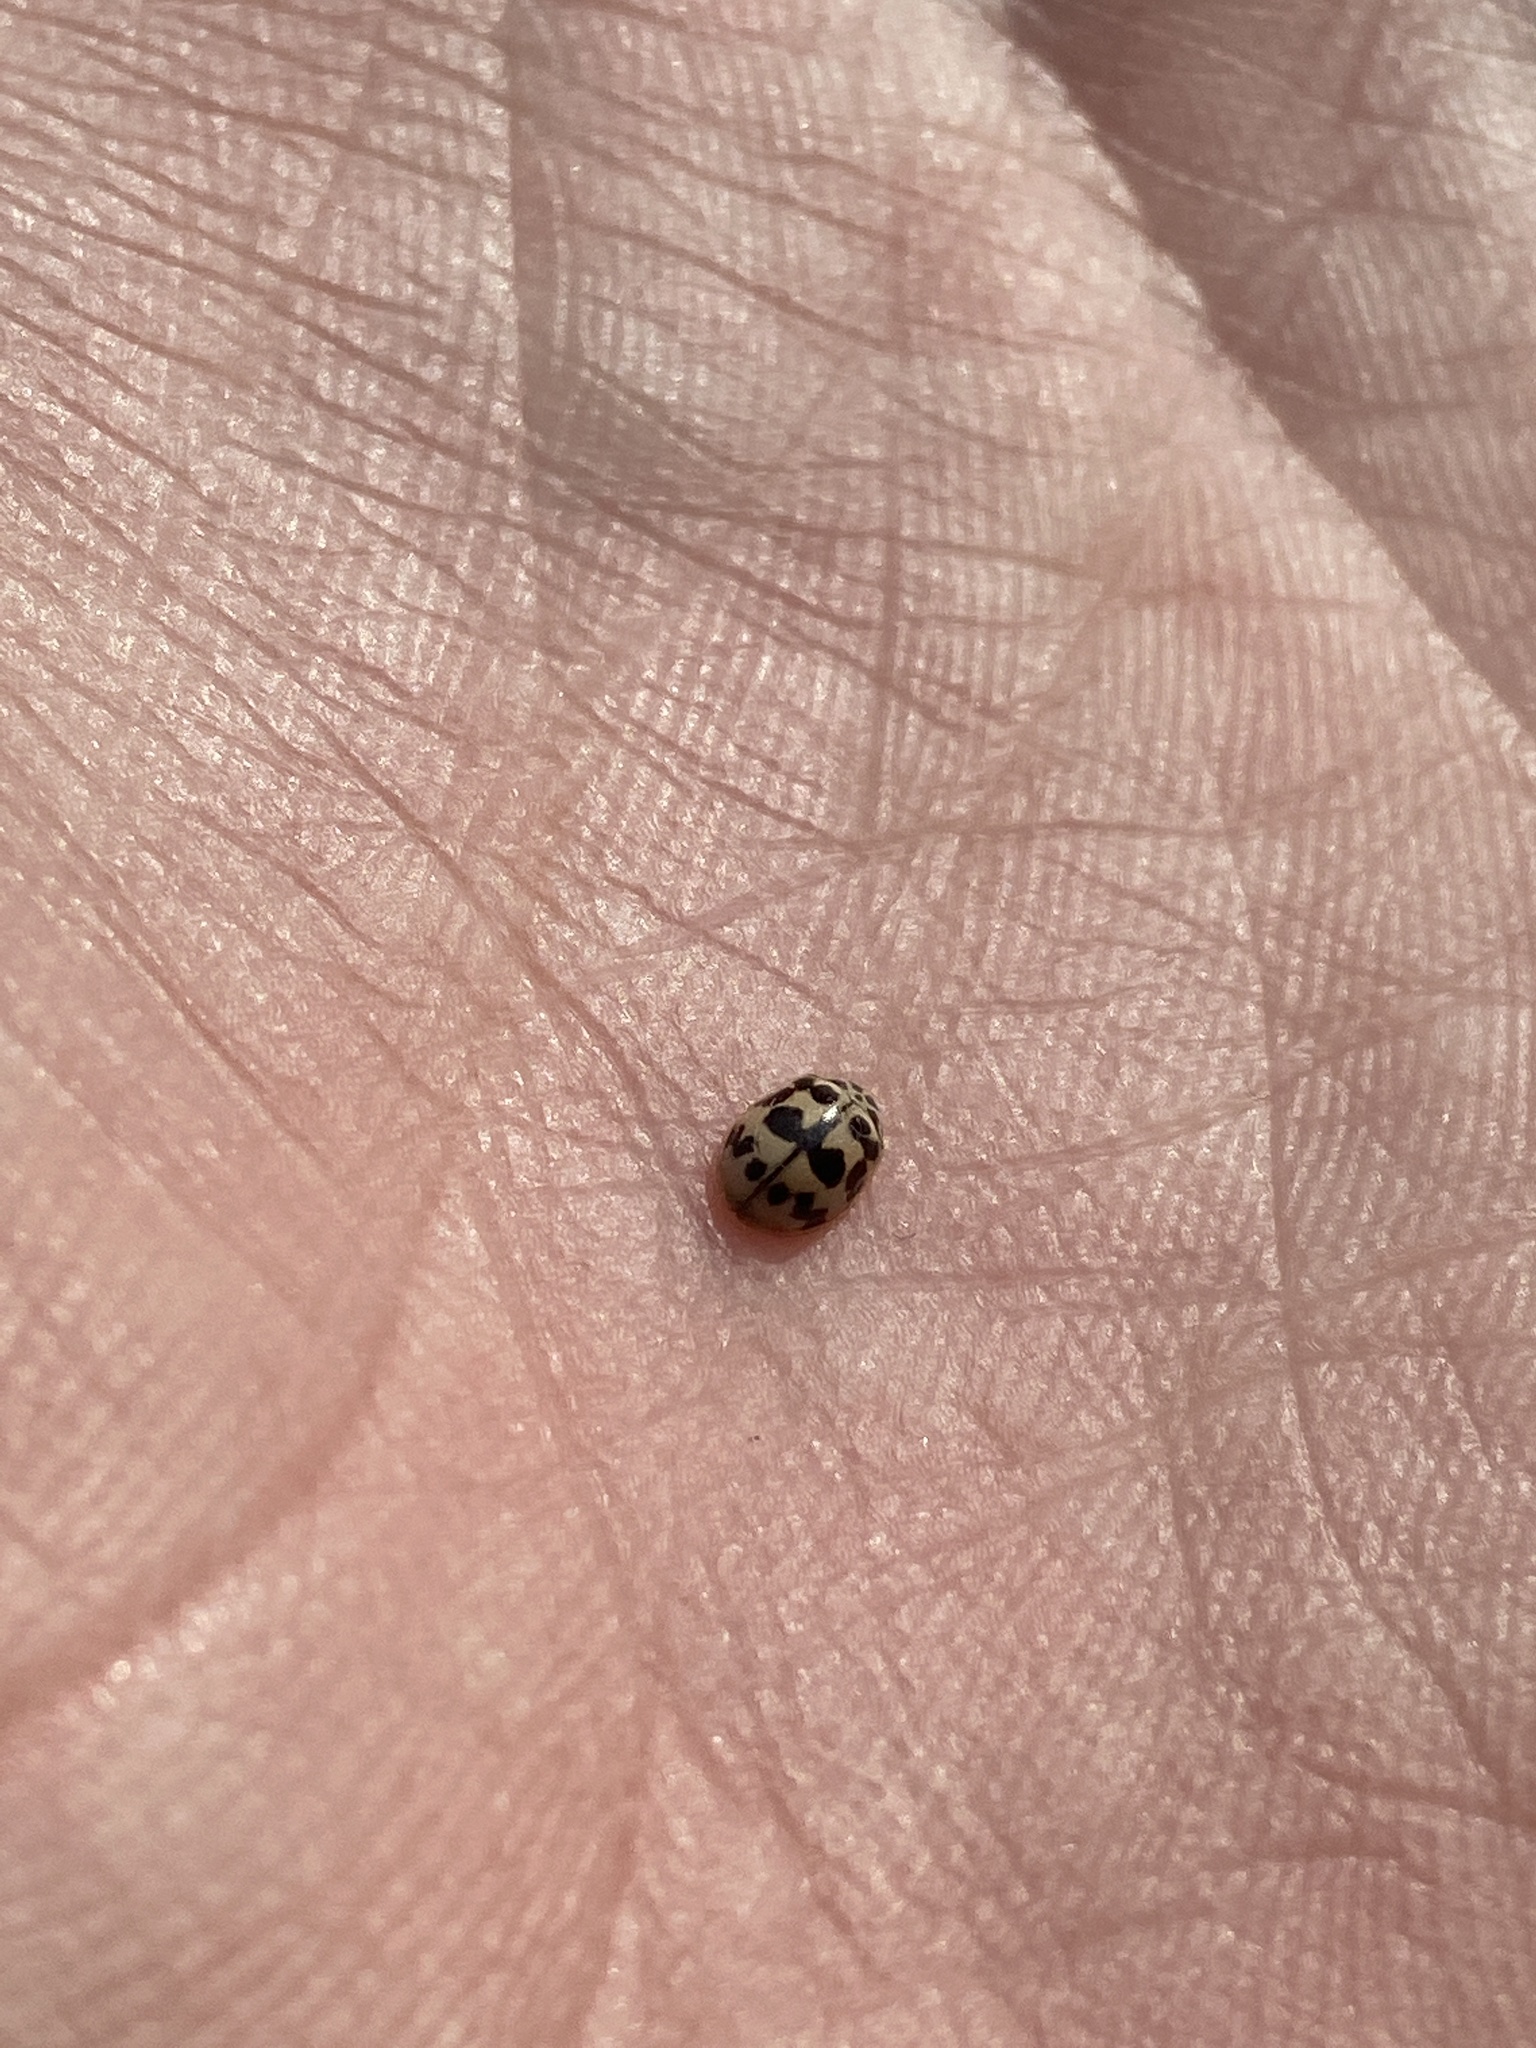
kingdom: Animalia
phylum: Arthropoda
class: Insecta
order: Coleoptera
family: Coccinellidae
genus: Oenopia
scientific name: Oenopia conglobata
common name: Ladybird beetle
